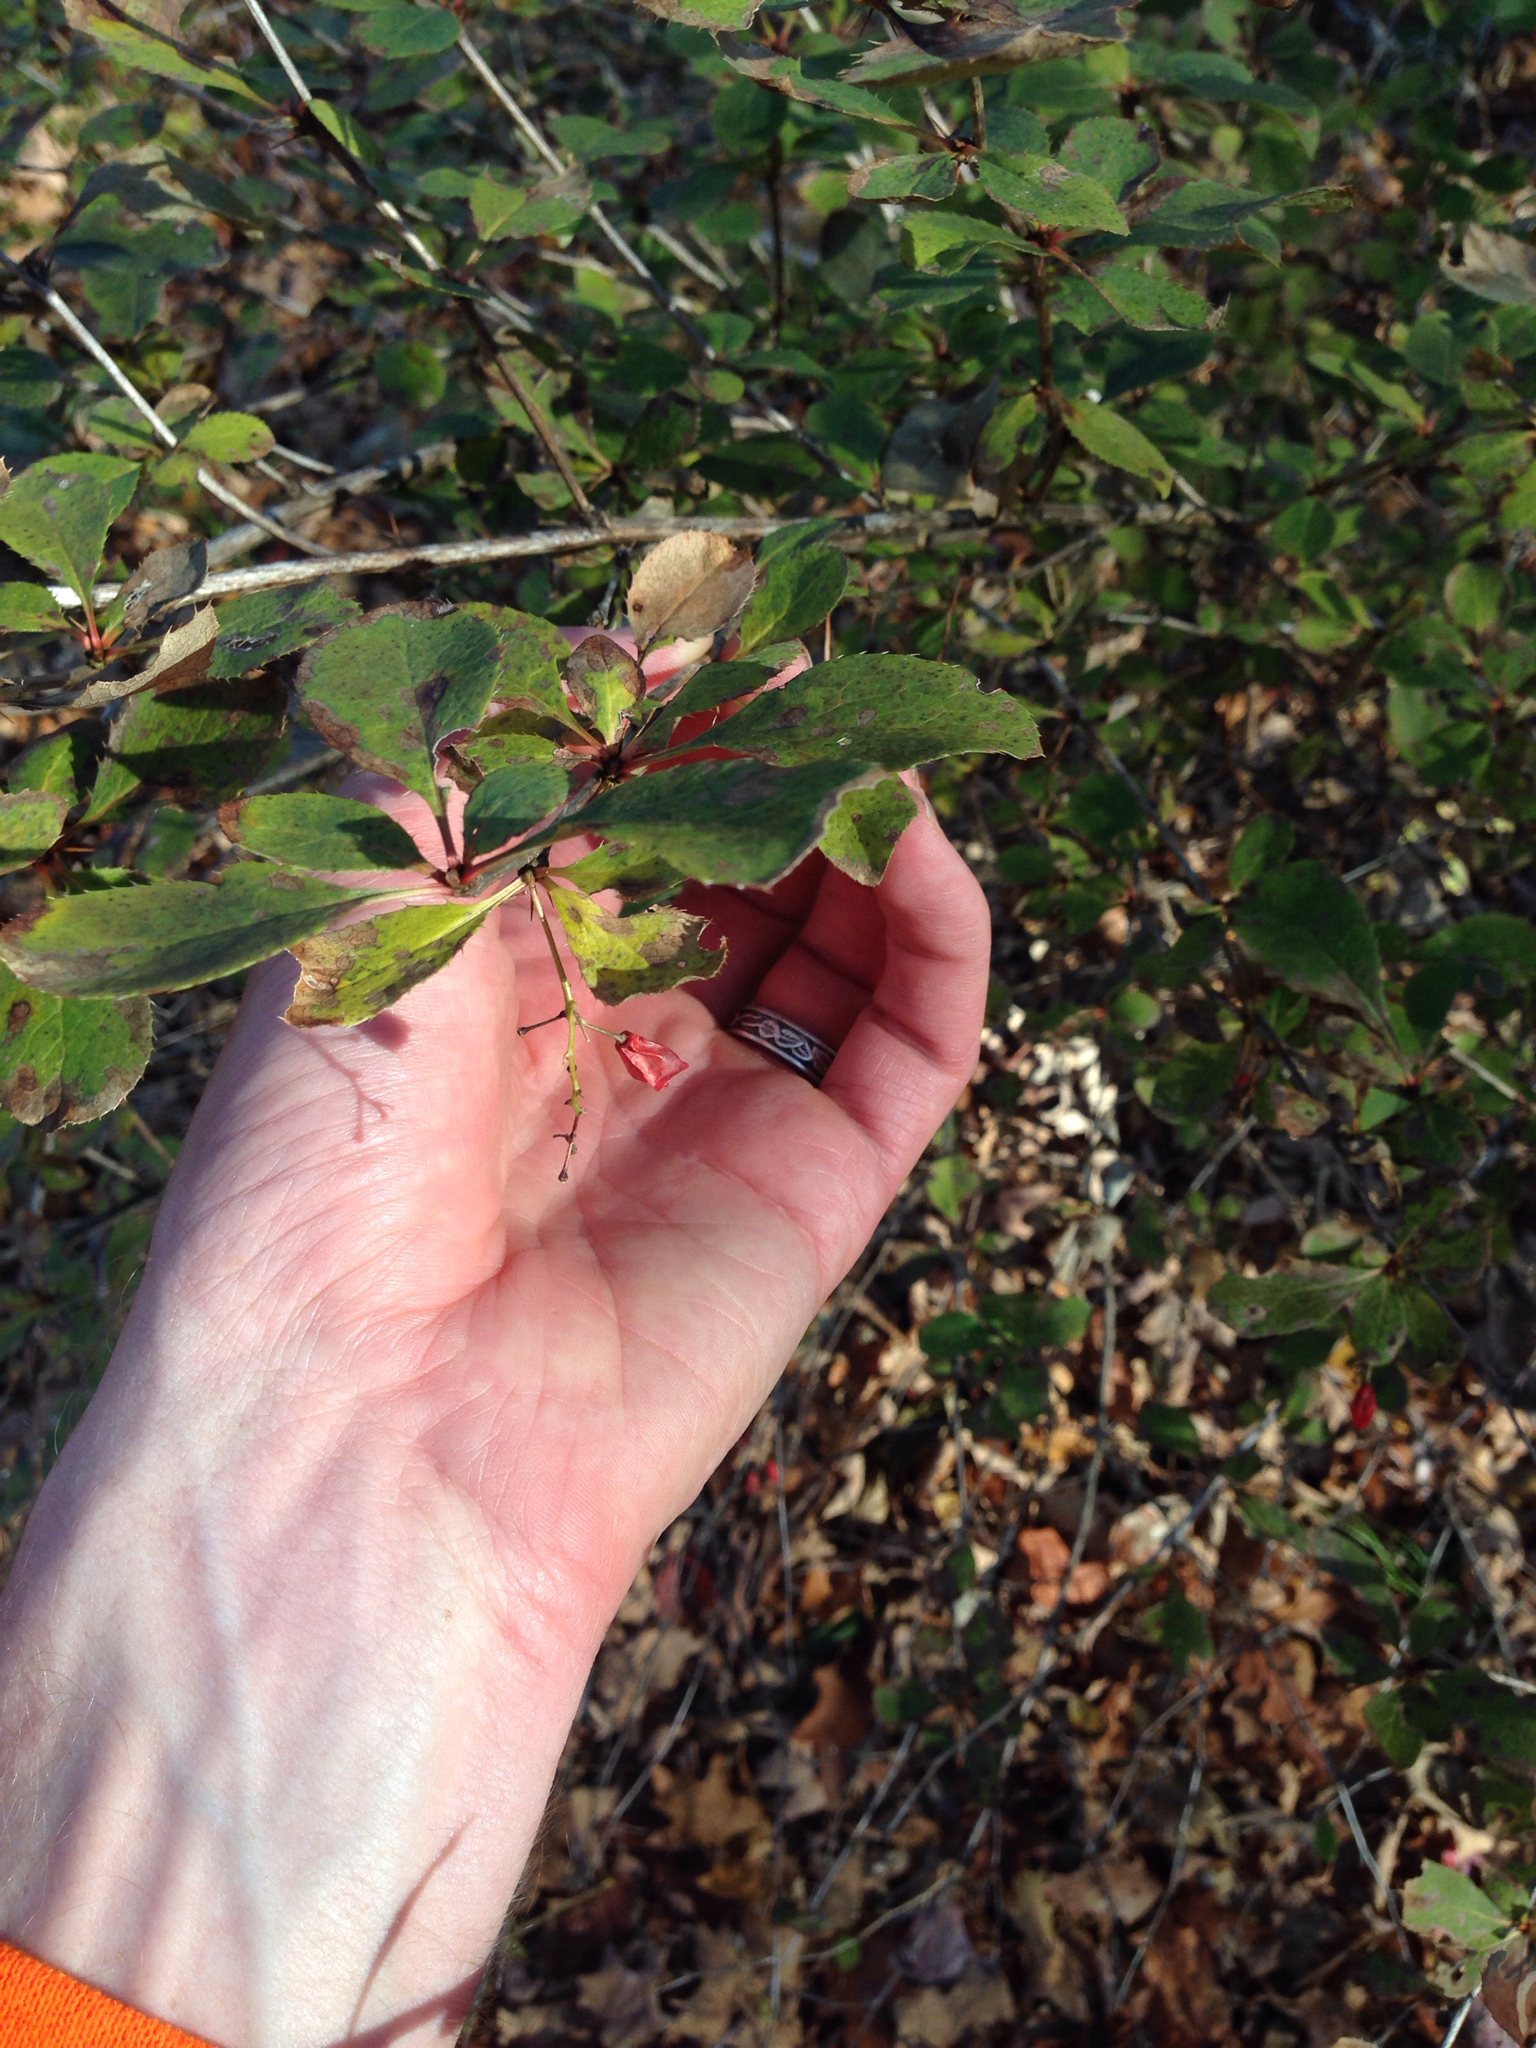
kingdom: Plantae
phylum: Tracheophyta
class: Magnoliopsida
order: Ranunculales
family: Berberidaceae
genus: Berberis
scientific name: Berberis vulgaris
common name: Barberry
